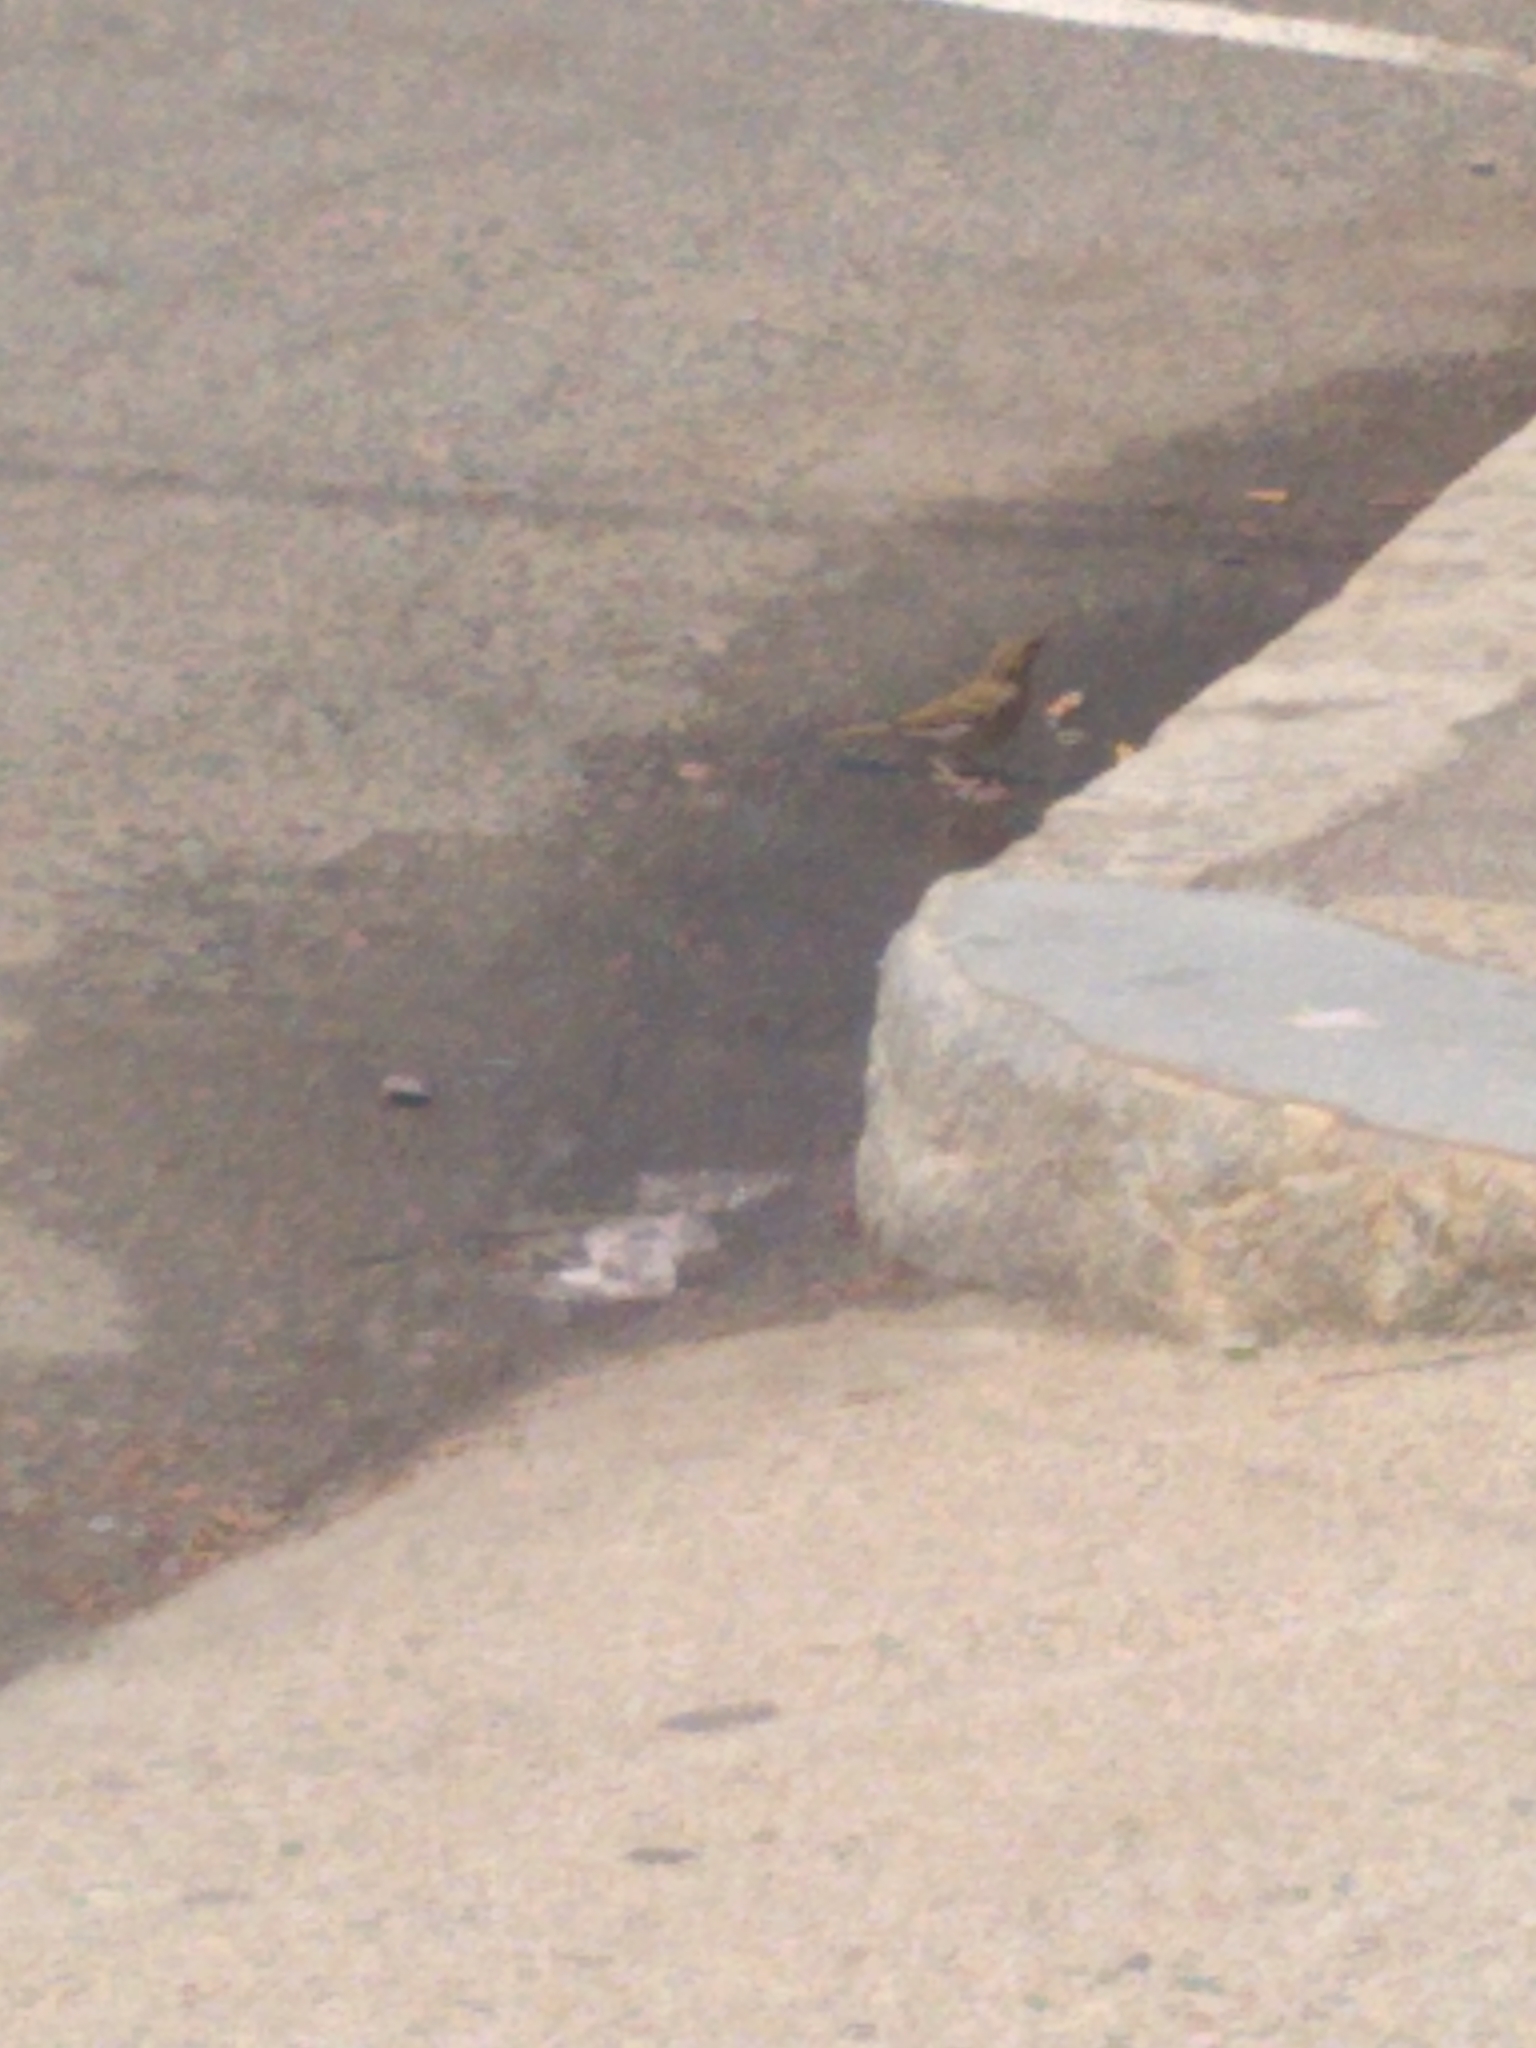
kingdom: Animalia
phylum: Chordata
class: Aves
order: Passeriformes
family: Passeridae
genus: Passer
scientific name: Passer domesticus
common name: House sparrow
